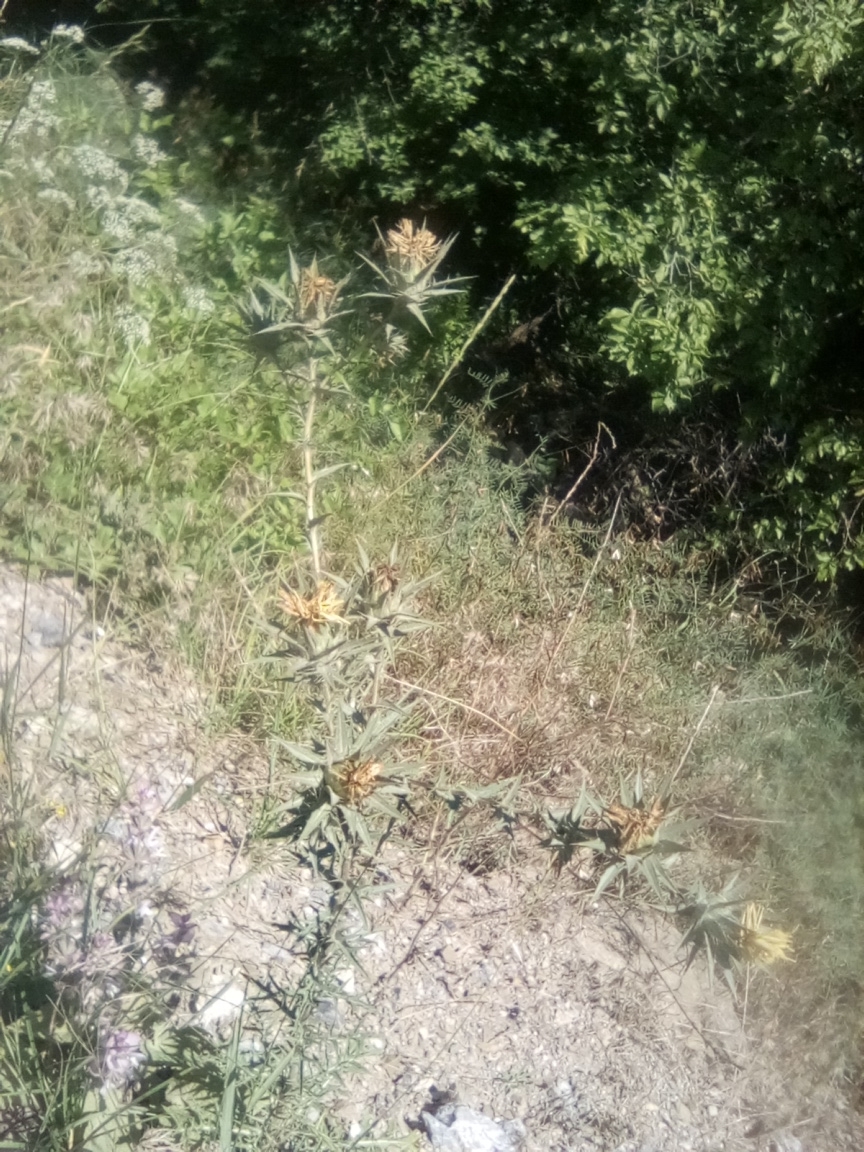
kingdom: Plantae
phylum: Tracheophyta
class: Magnoliopsida
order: Asterales
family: Asteraceae
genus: Carthamus
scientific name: Carthamus lanatus
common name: Downy safflower
